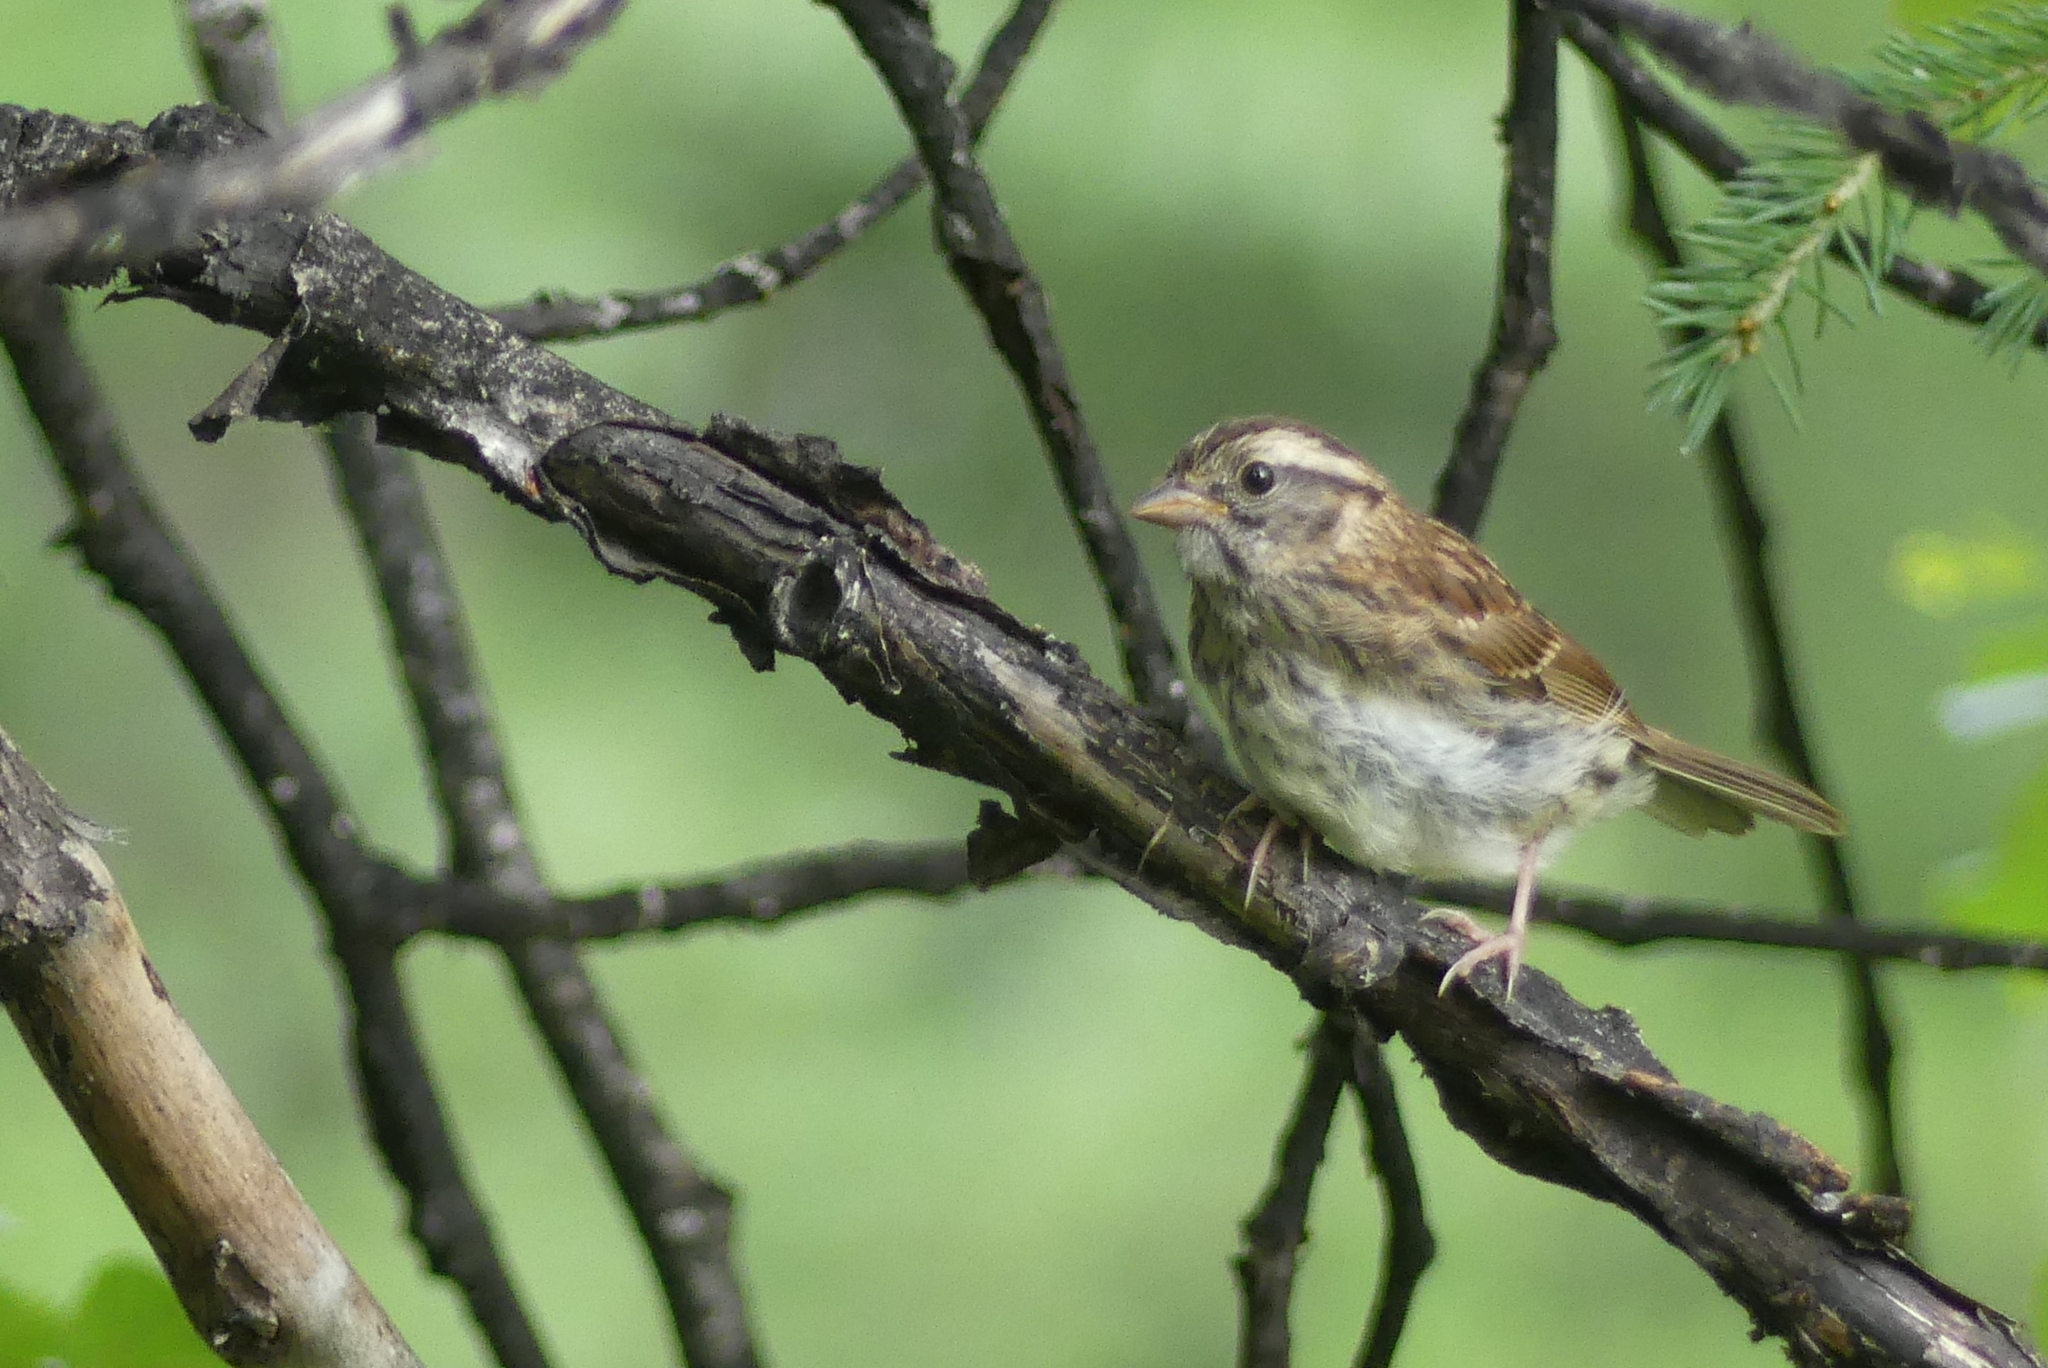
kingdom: Animalia
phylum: Chordata
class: Aves
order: Passeriformes
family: Passerellidae
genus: Zonotrichia
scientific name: Zonotrichia albicollis
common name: White-throated sparrow
